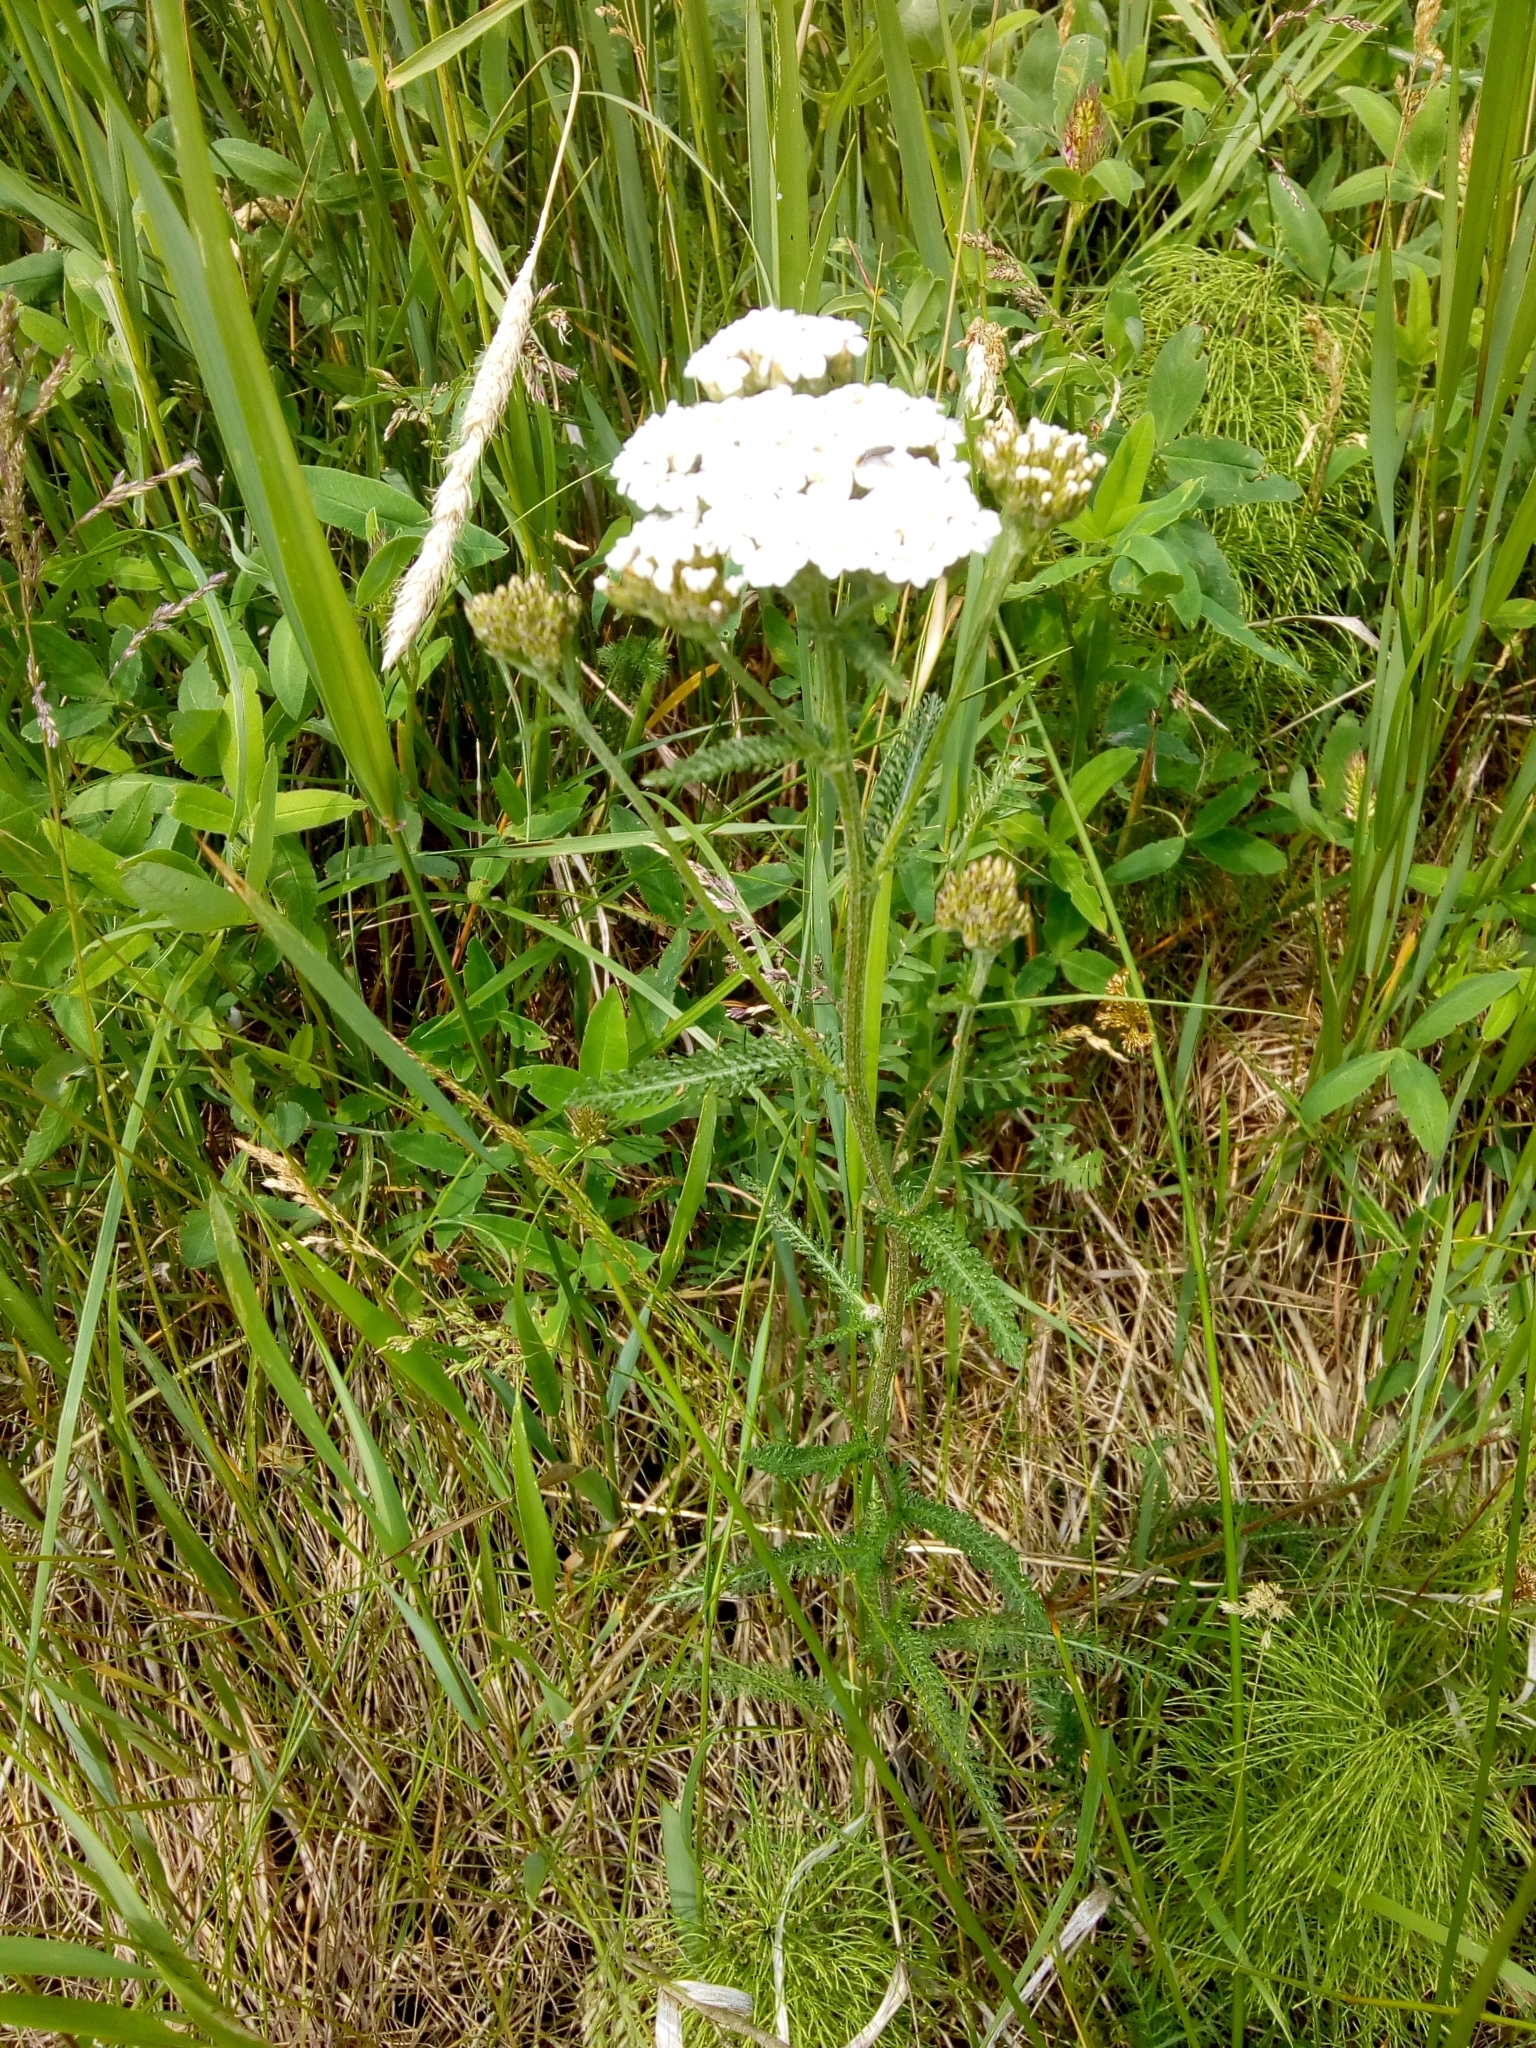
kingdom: Plantae
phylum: Tracheophyta
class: Magnoliopsida
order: Asterales
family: Asteraceae
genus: Achillea
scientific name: Achillea millefolium
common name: Yarrow
